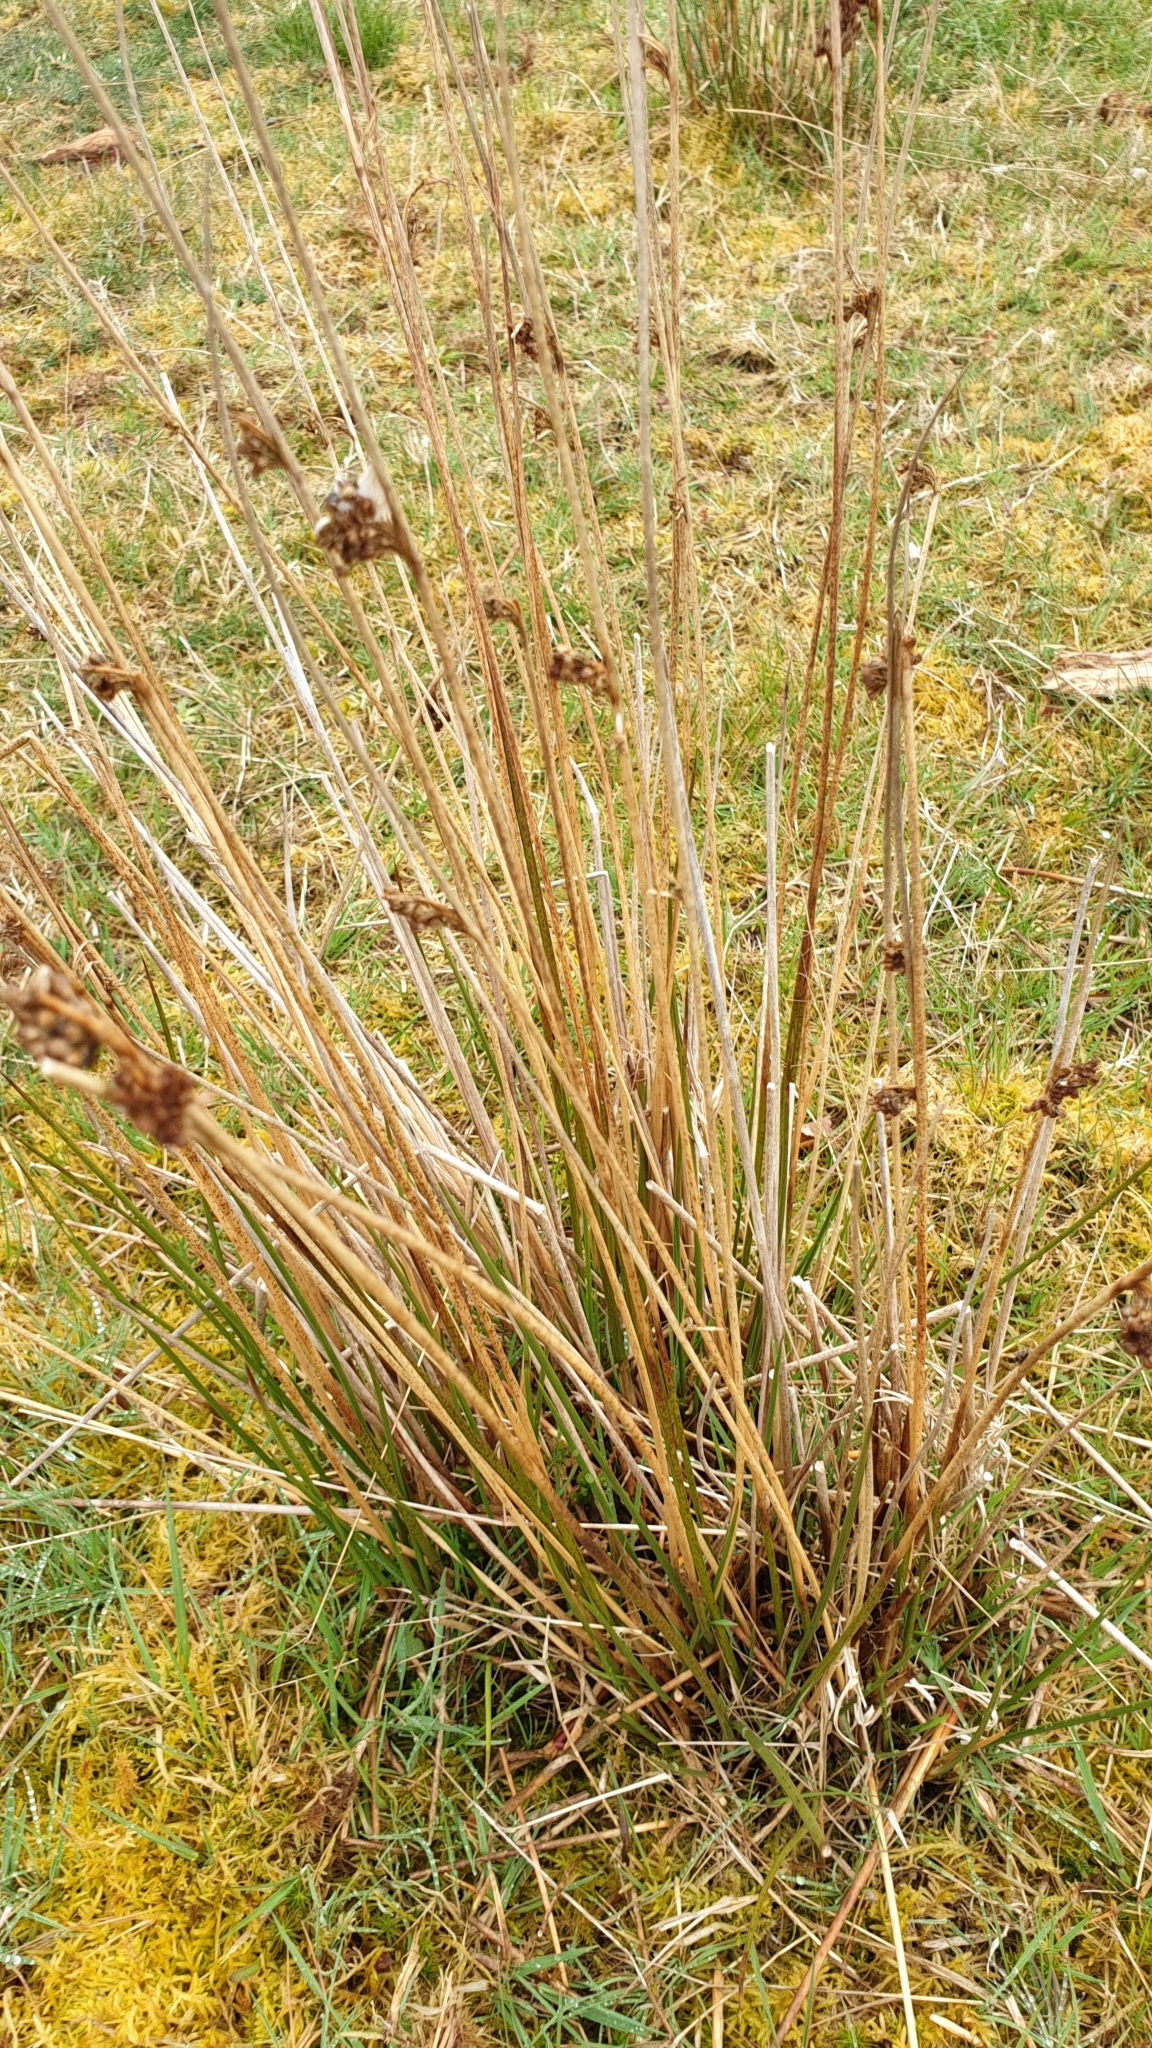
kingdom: Plantae
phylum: Tracheophyta
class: Liliopsida
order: Poales
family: Juncaceae
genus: Juncus
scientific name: Juncus effusus
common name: Soft rush
